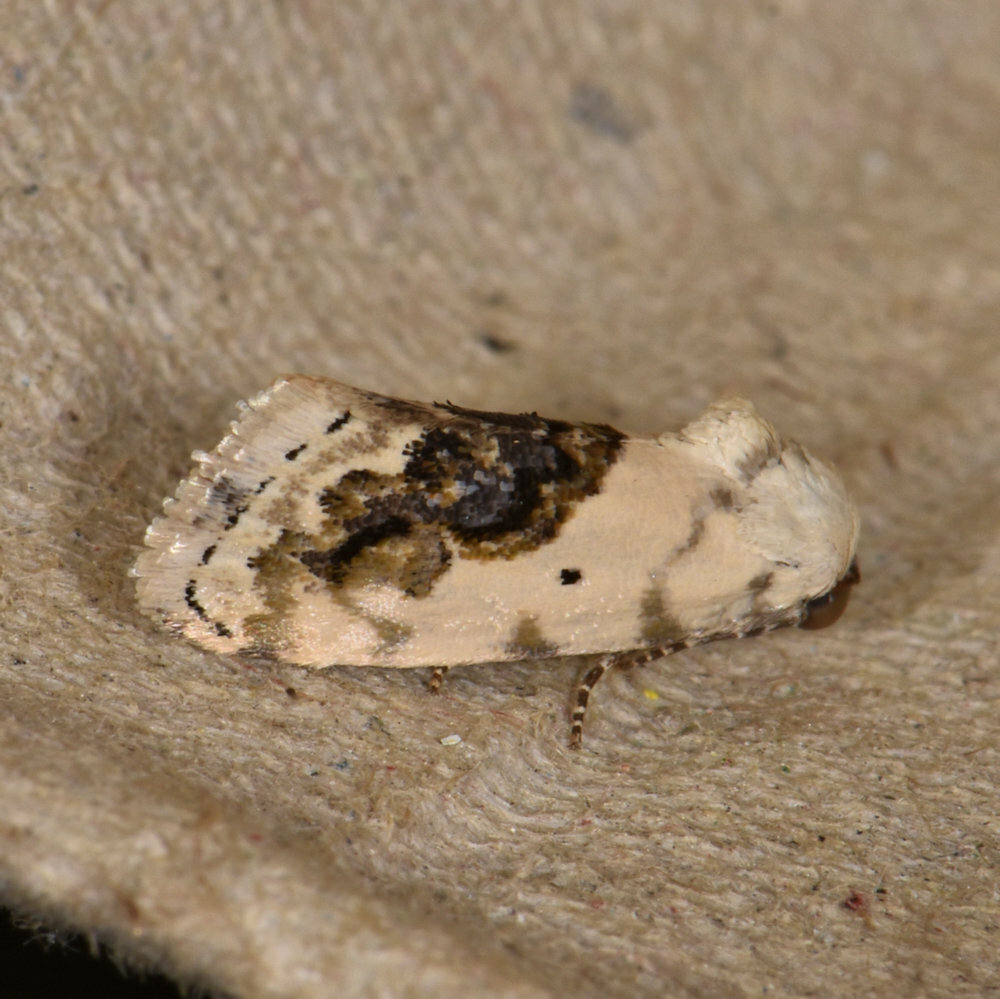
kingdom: Animalia
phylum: Arthropoda
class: Insecta
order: Lepidoptera
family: Noctuidae
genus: Acontia
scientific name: Acontia erastrioides
